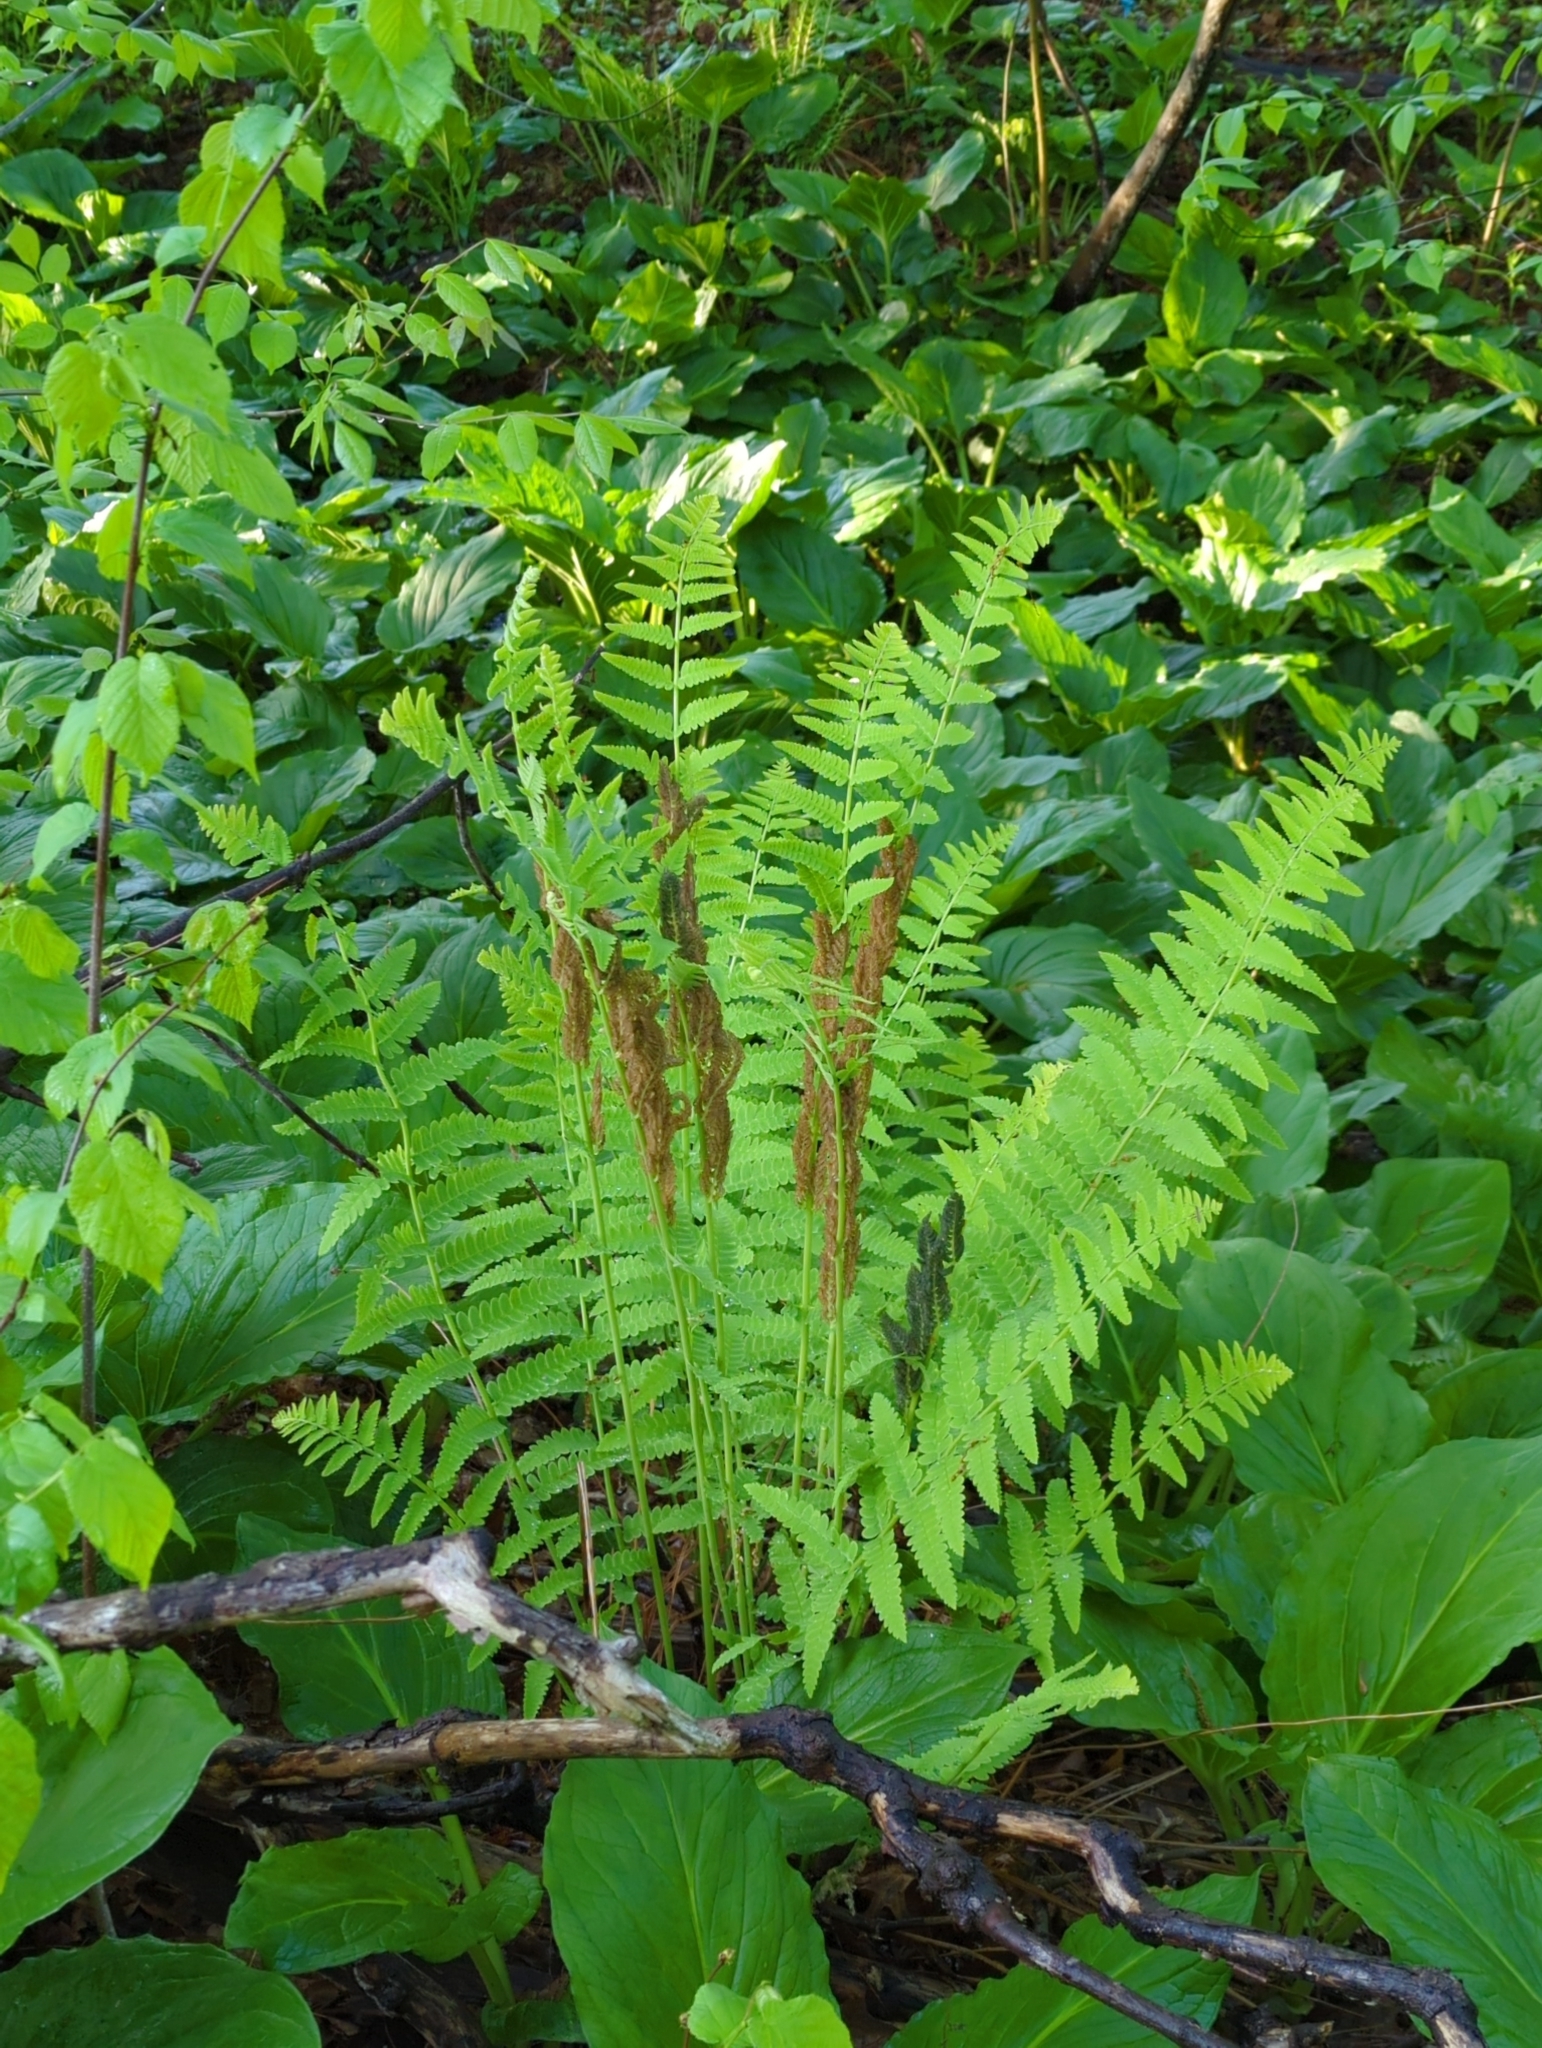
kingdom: Plantae
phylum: Tracheophyta
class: Polypodiopsida
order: Osmundales
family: Osmundaceae
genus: Claytosmunda
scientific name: Claytosmunda claytoniana
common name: Clayton's fern
